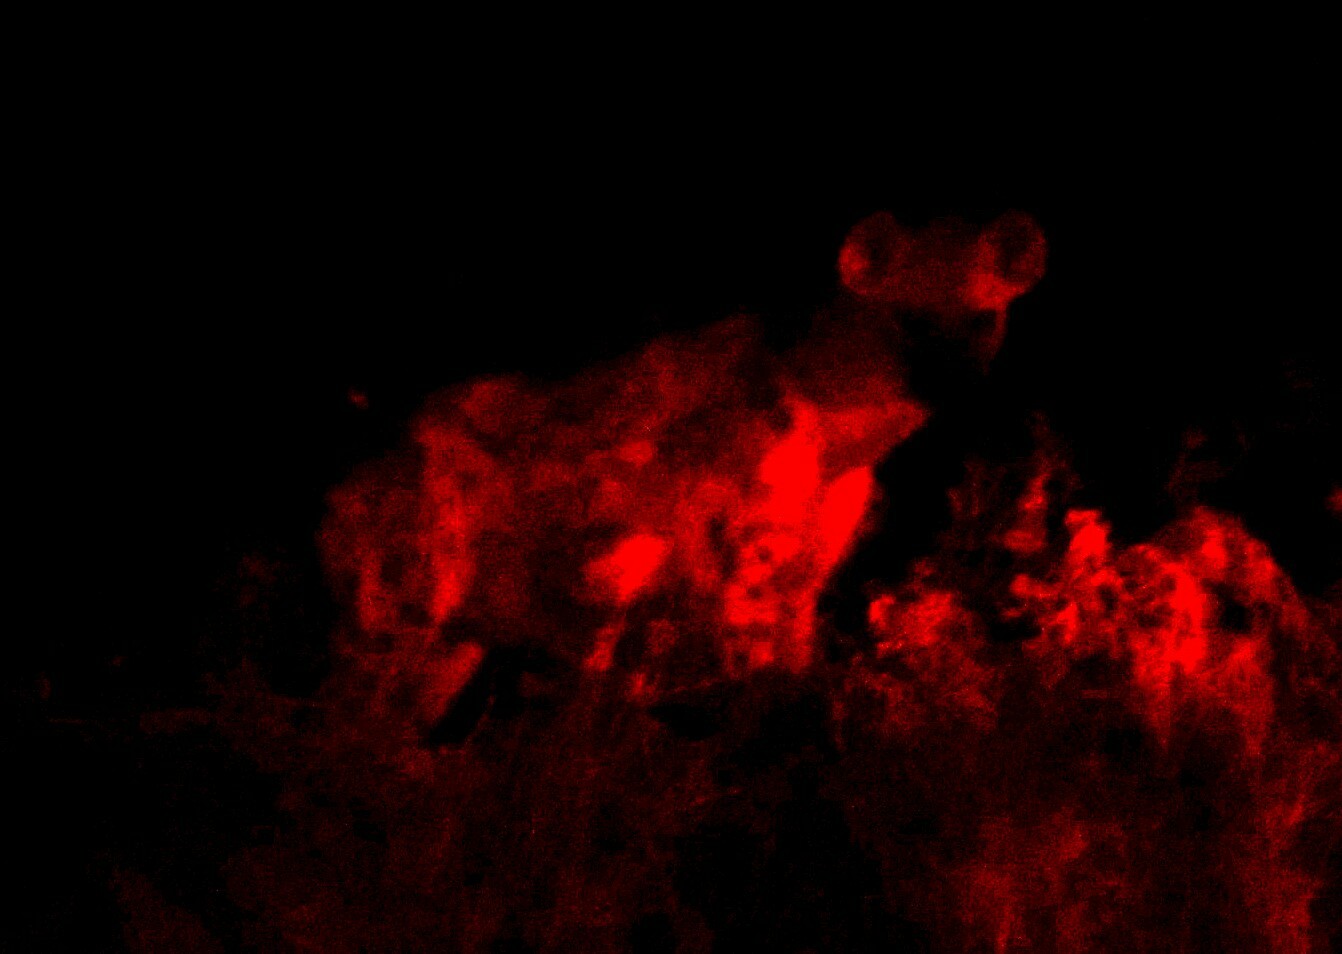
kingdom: Animalia
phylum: Chordata
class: Mammalia
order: Carnivora
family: Hyaenidae
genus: Crocuta
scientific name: Crocuta crocuta
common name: Spotted hyaena
